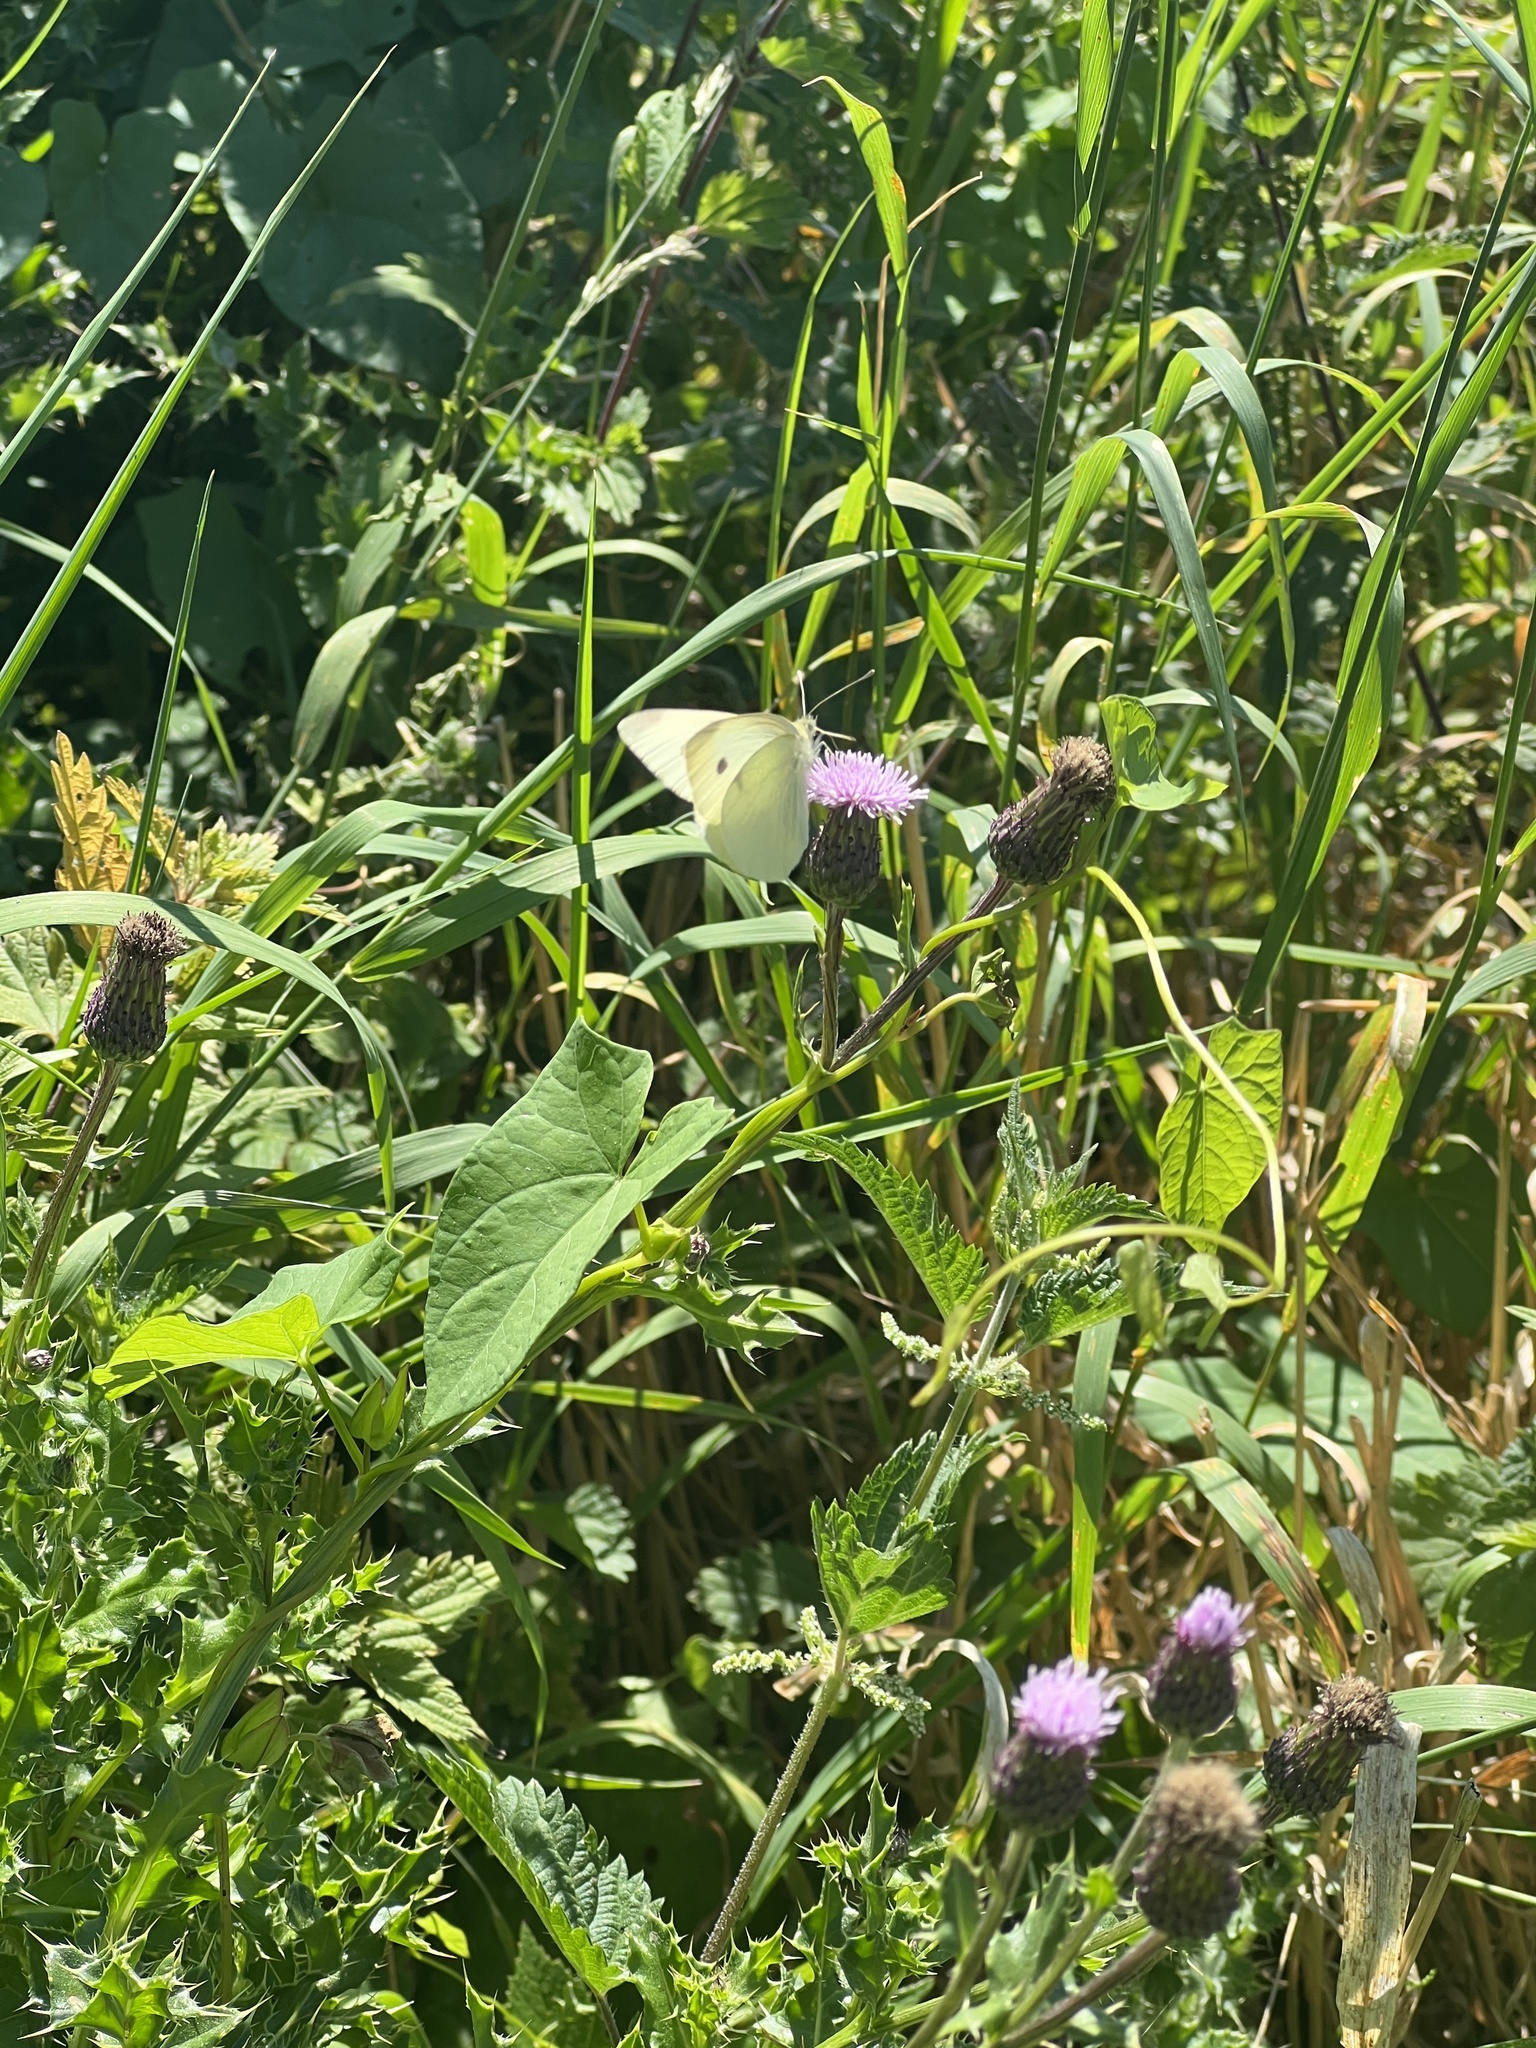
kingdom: Animalia
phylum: Arthropoda
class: Insecta
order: Lepidoptera
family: Pieridae
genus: Pieris
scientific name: Pieris rapae
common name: Small white
